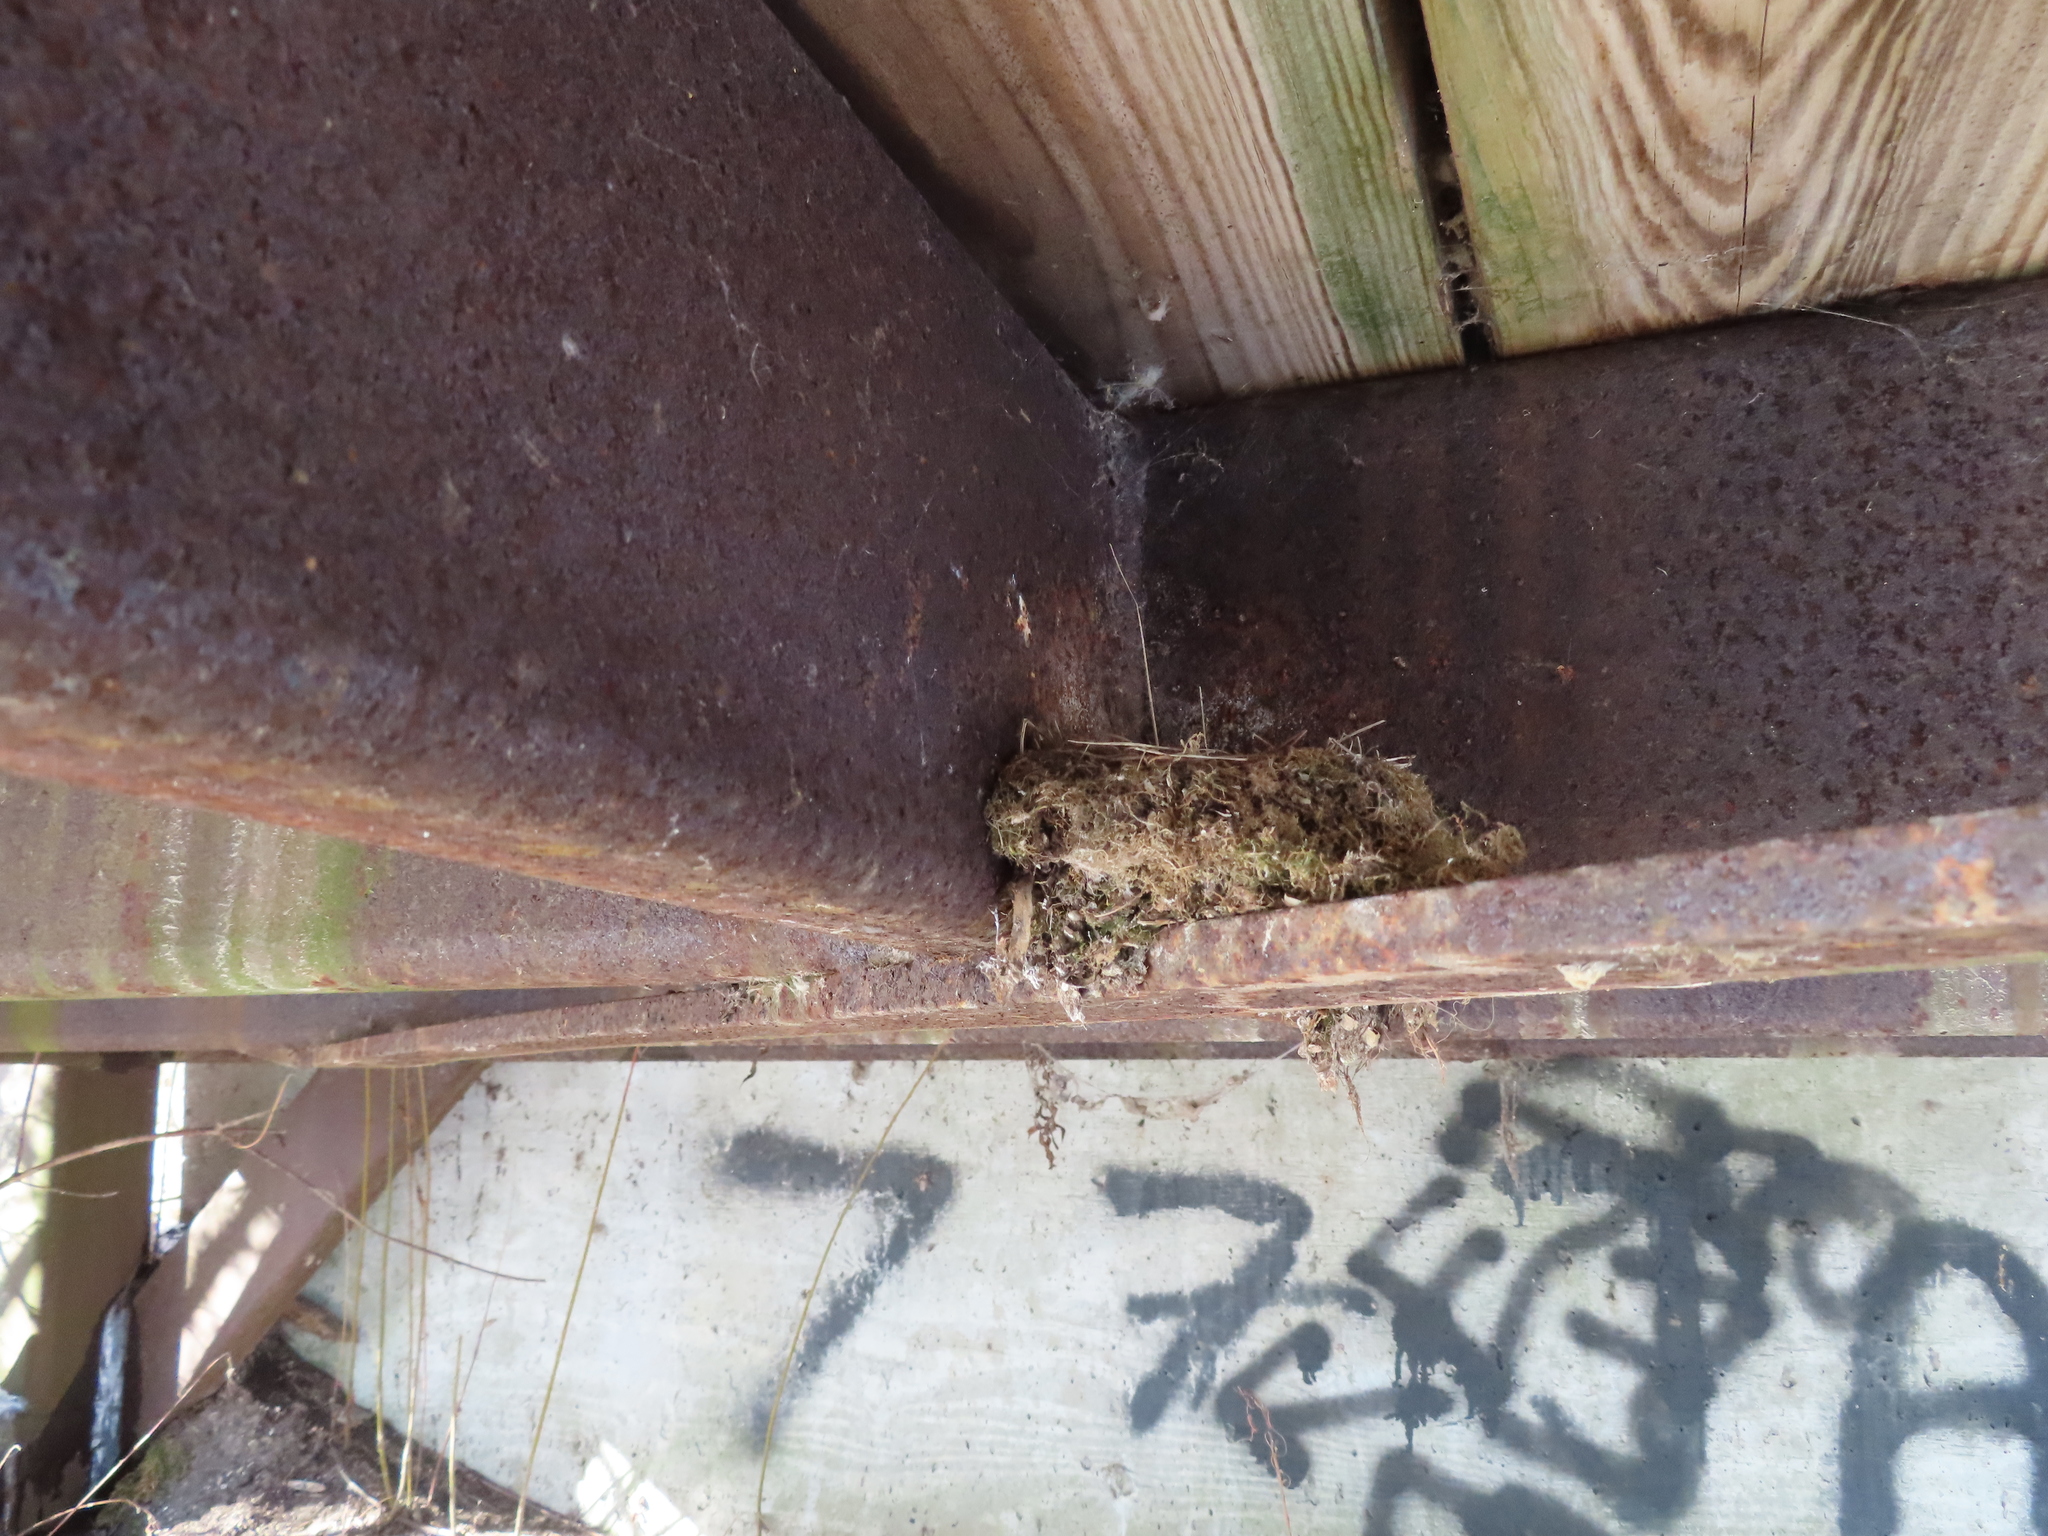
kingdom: Animalia
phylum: Chordata
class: Aves
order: Passeriformes
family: Tyrannidae
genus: Sayornis
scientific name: Sayornis phoebe
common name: Eastern phoebe
